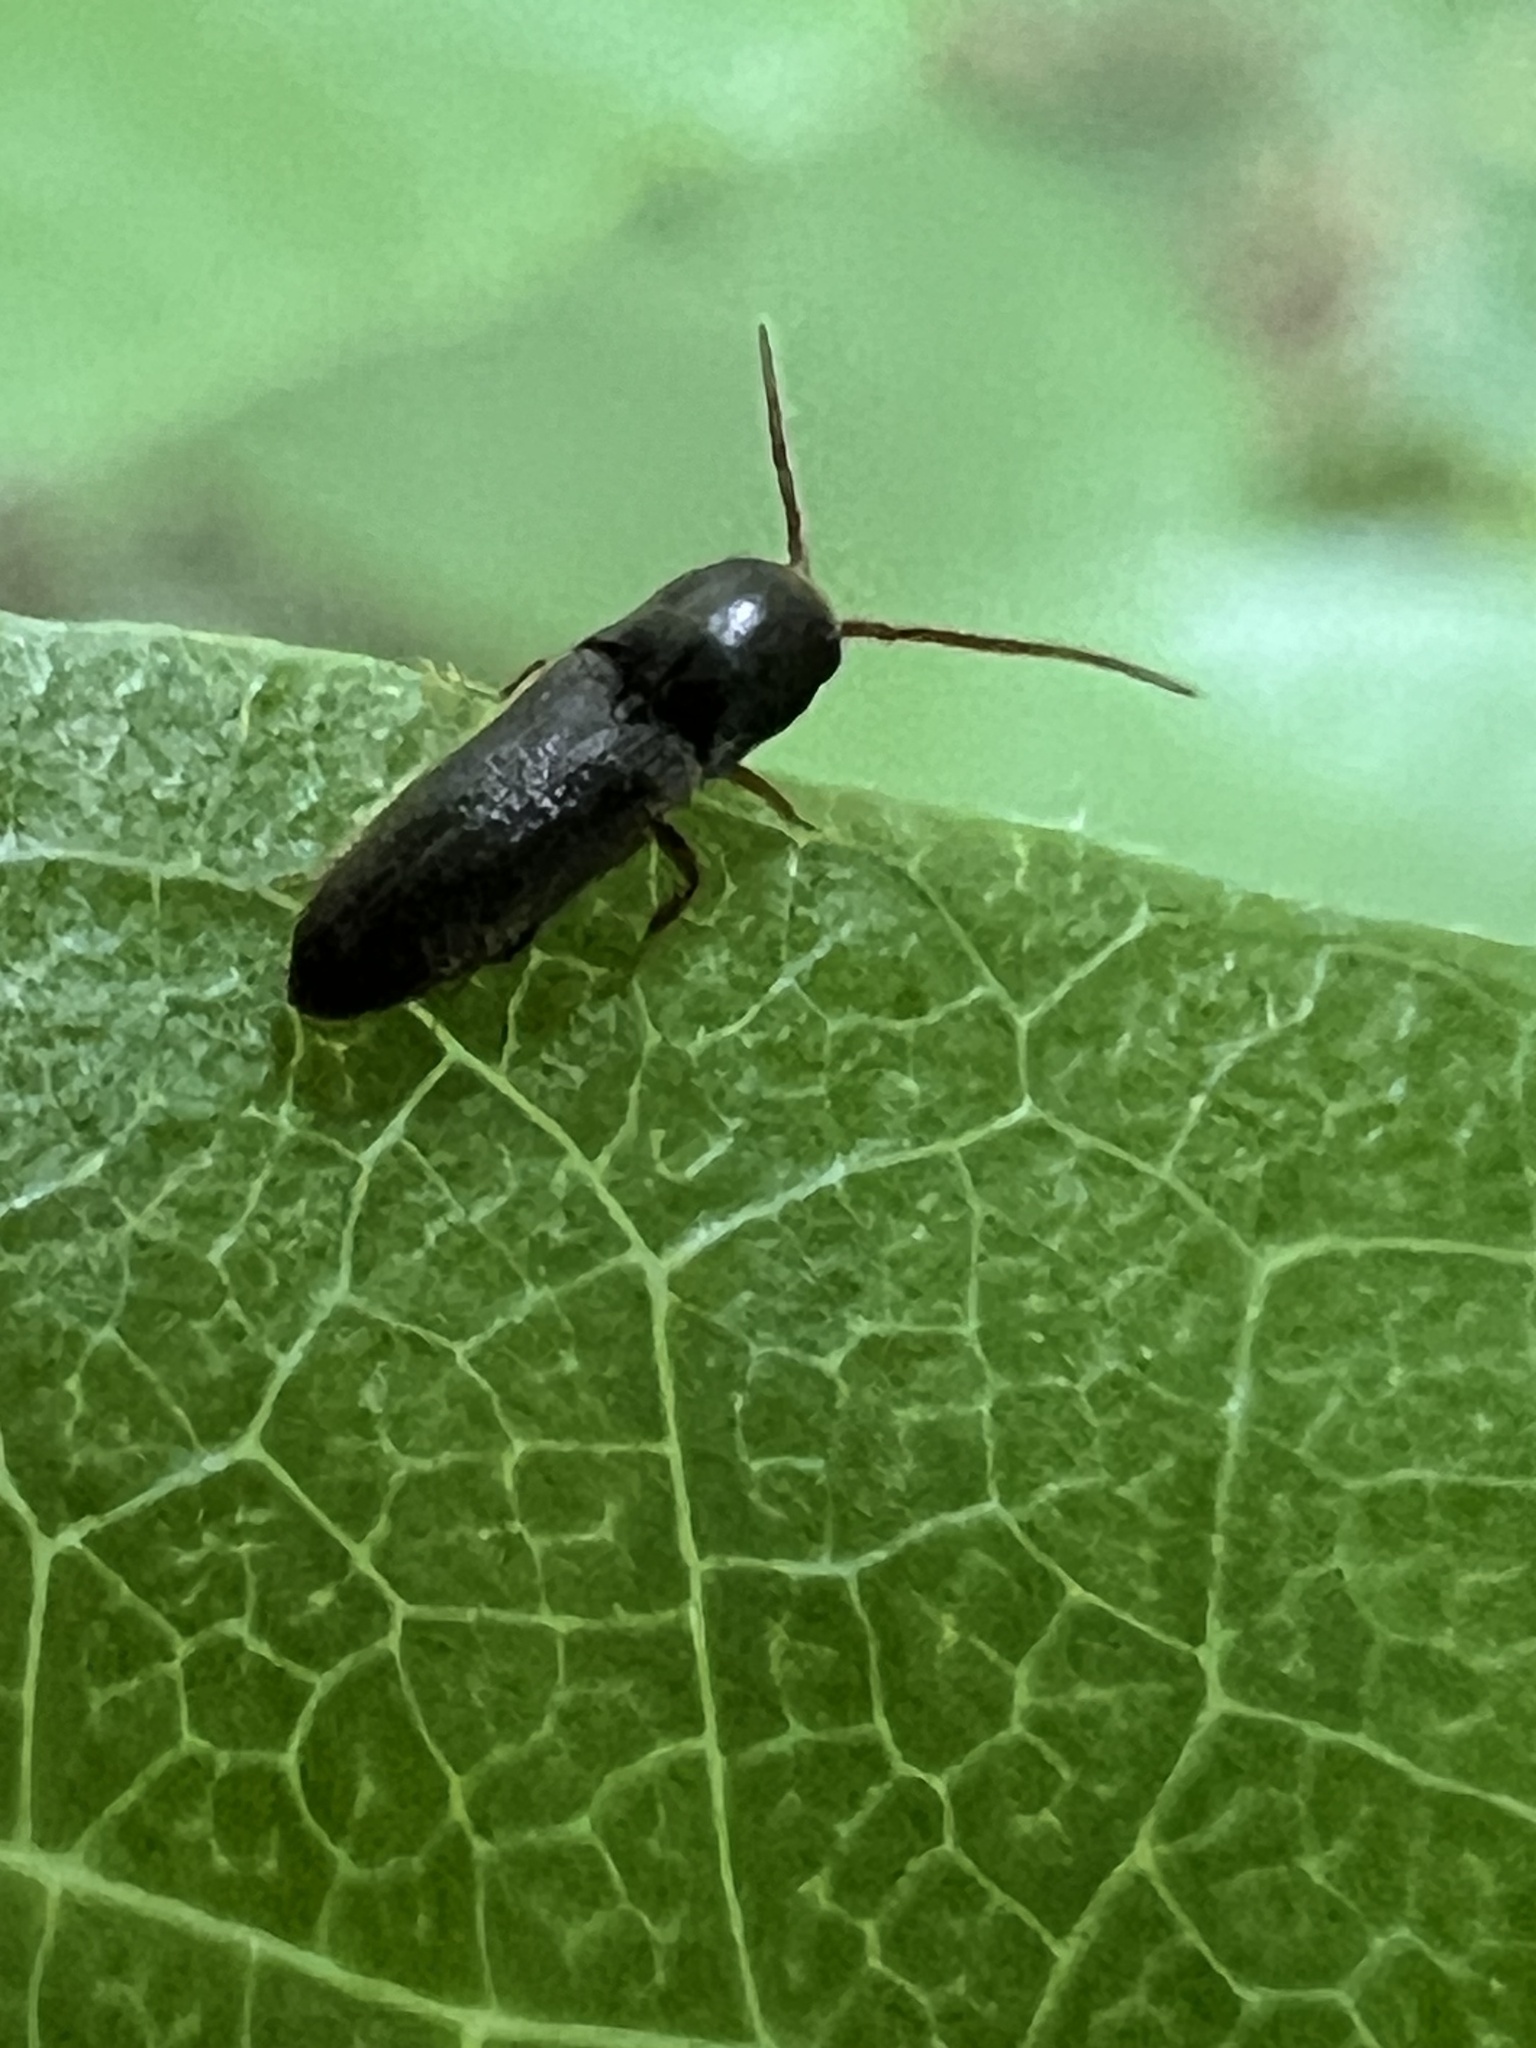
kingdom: Animalia
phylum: Arthropoda
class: Insecta
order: Coleoptera
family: Eucnemidae
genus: Rhagomicrus
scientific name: Rhagomicrus humeralis
